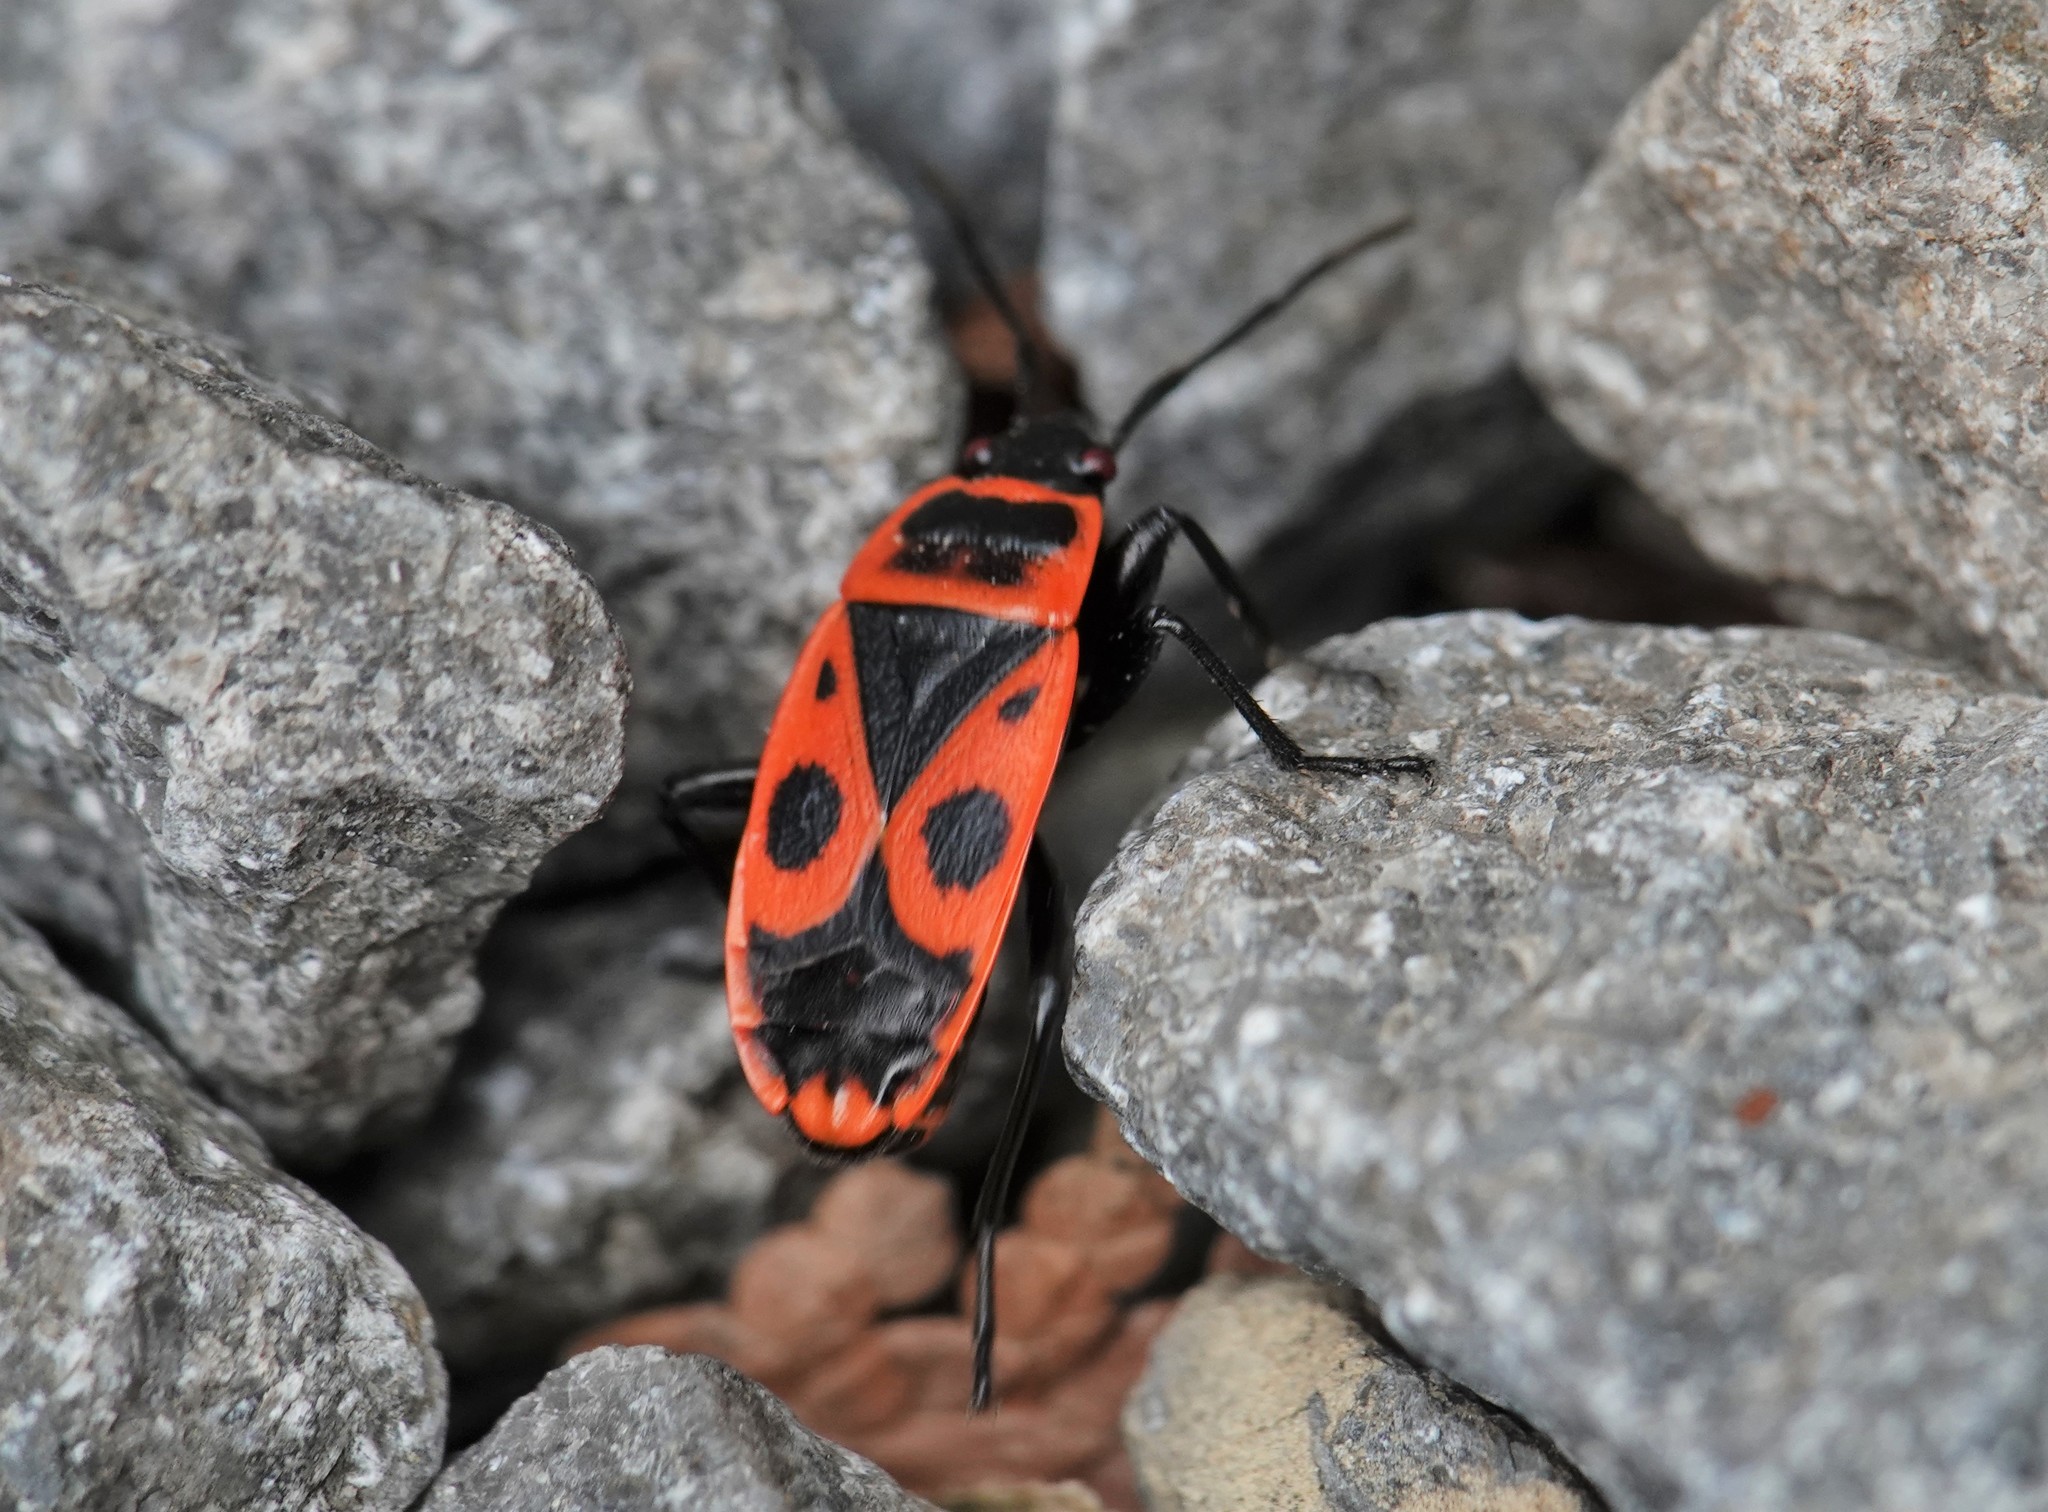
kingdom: Animalia
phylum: Arthropoda
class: Insecta
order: Hemiptera
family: Pyrrhocoridae
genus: Pyrrhocoris
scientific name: Pyrrhocoris apterus
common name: Firebug
